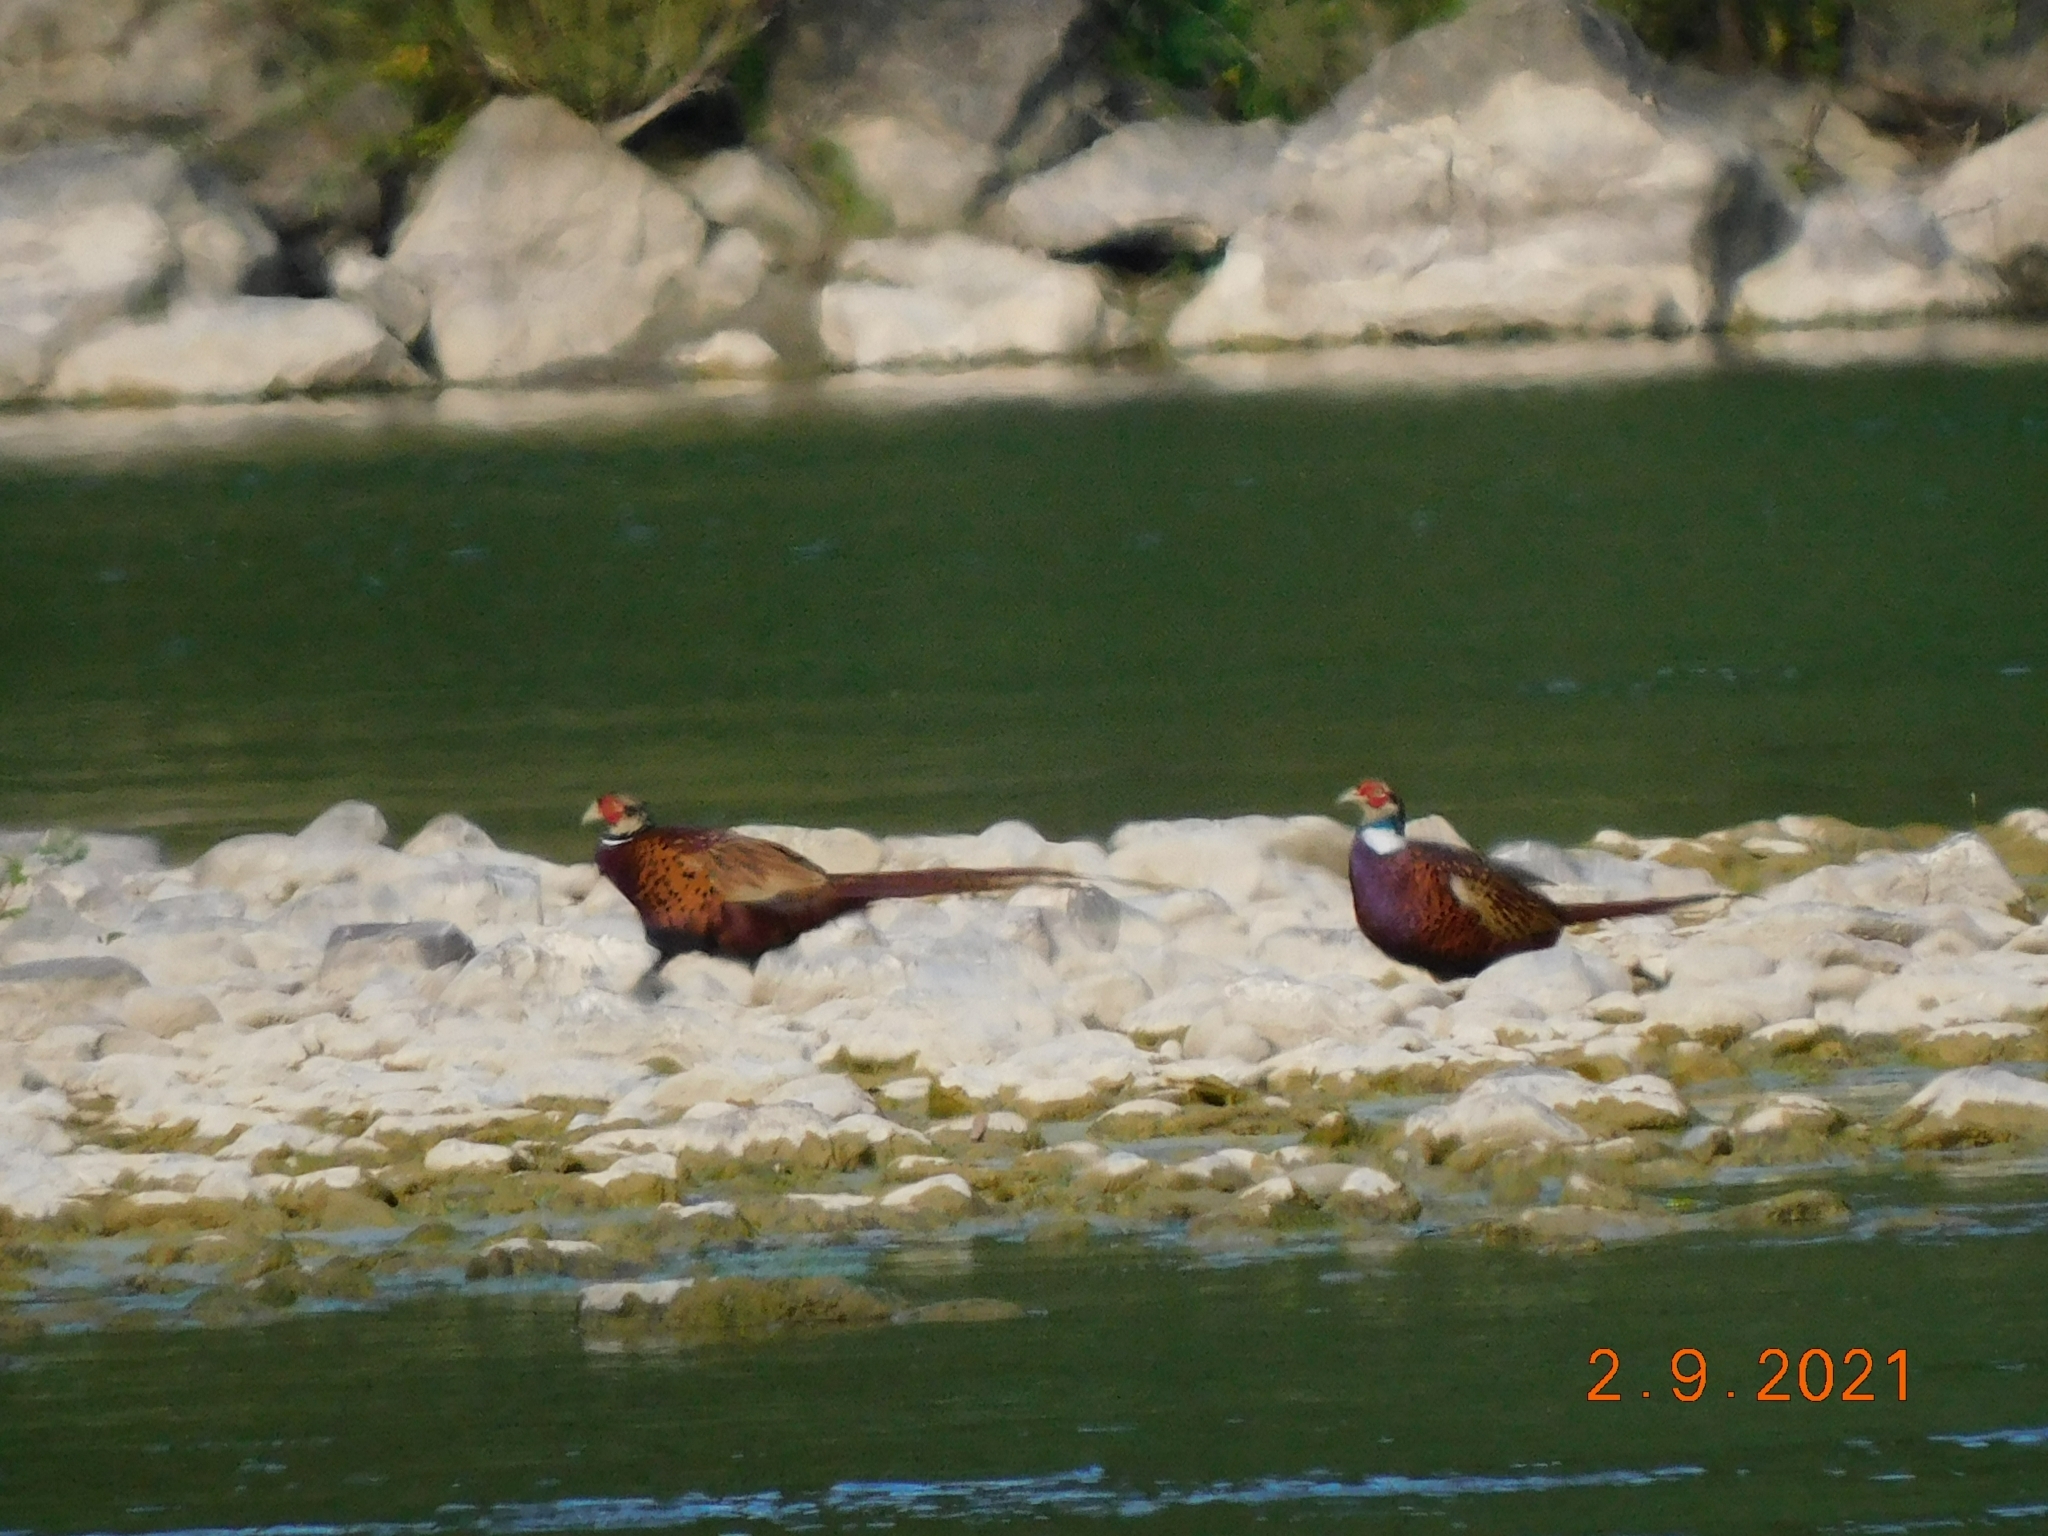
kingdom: Animalia
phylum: Chordata
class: Aves
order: Galliformes
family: Phasianidae
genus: Phasianus
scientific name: Phasianus colchicus
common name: Common pheasant
